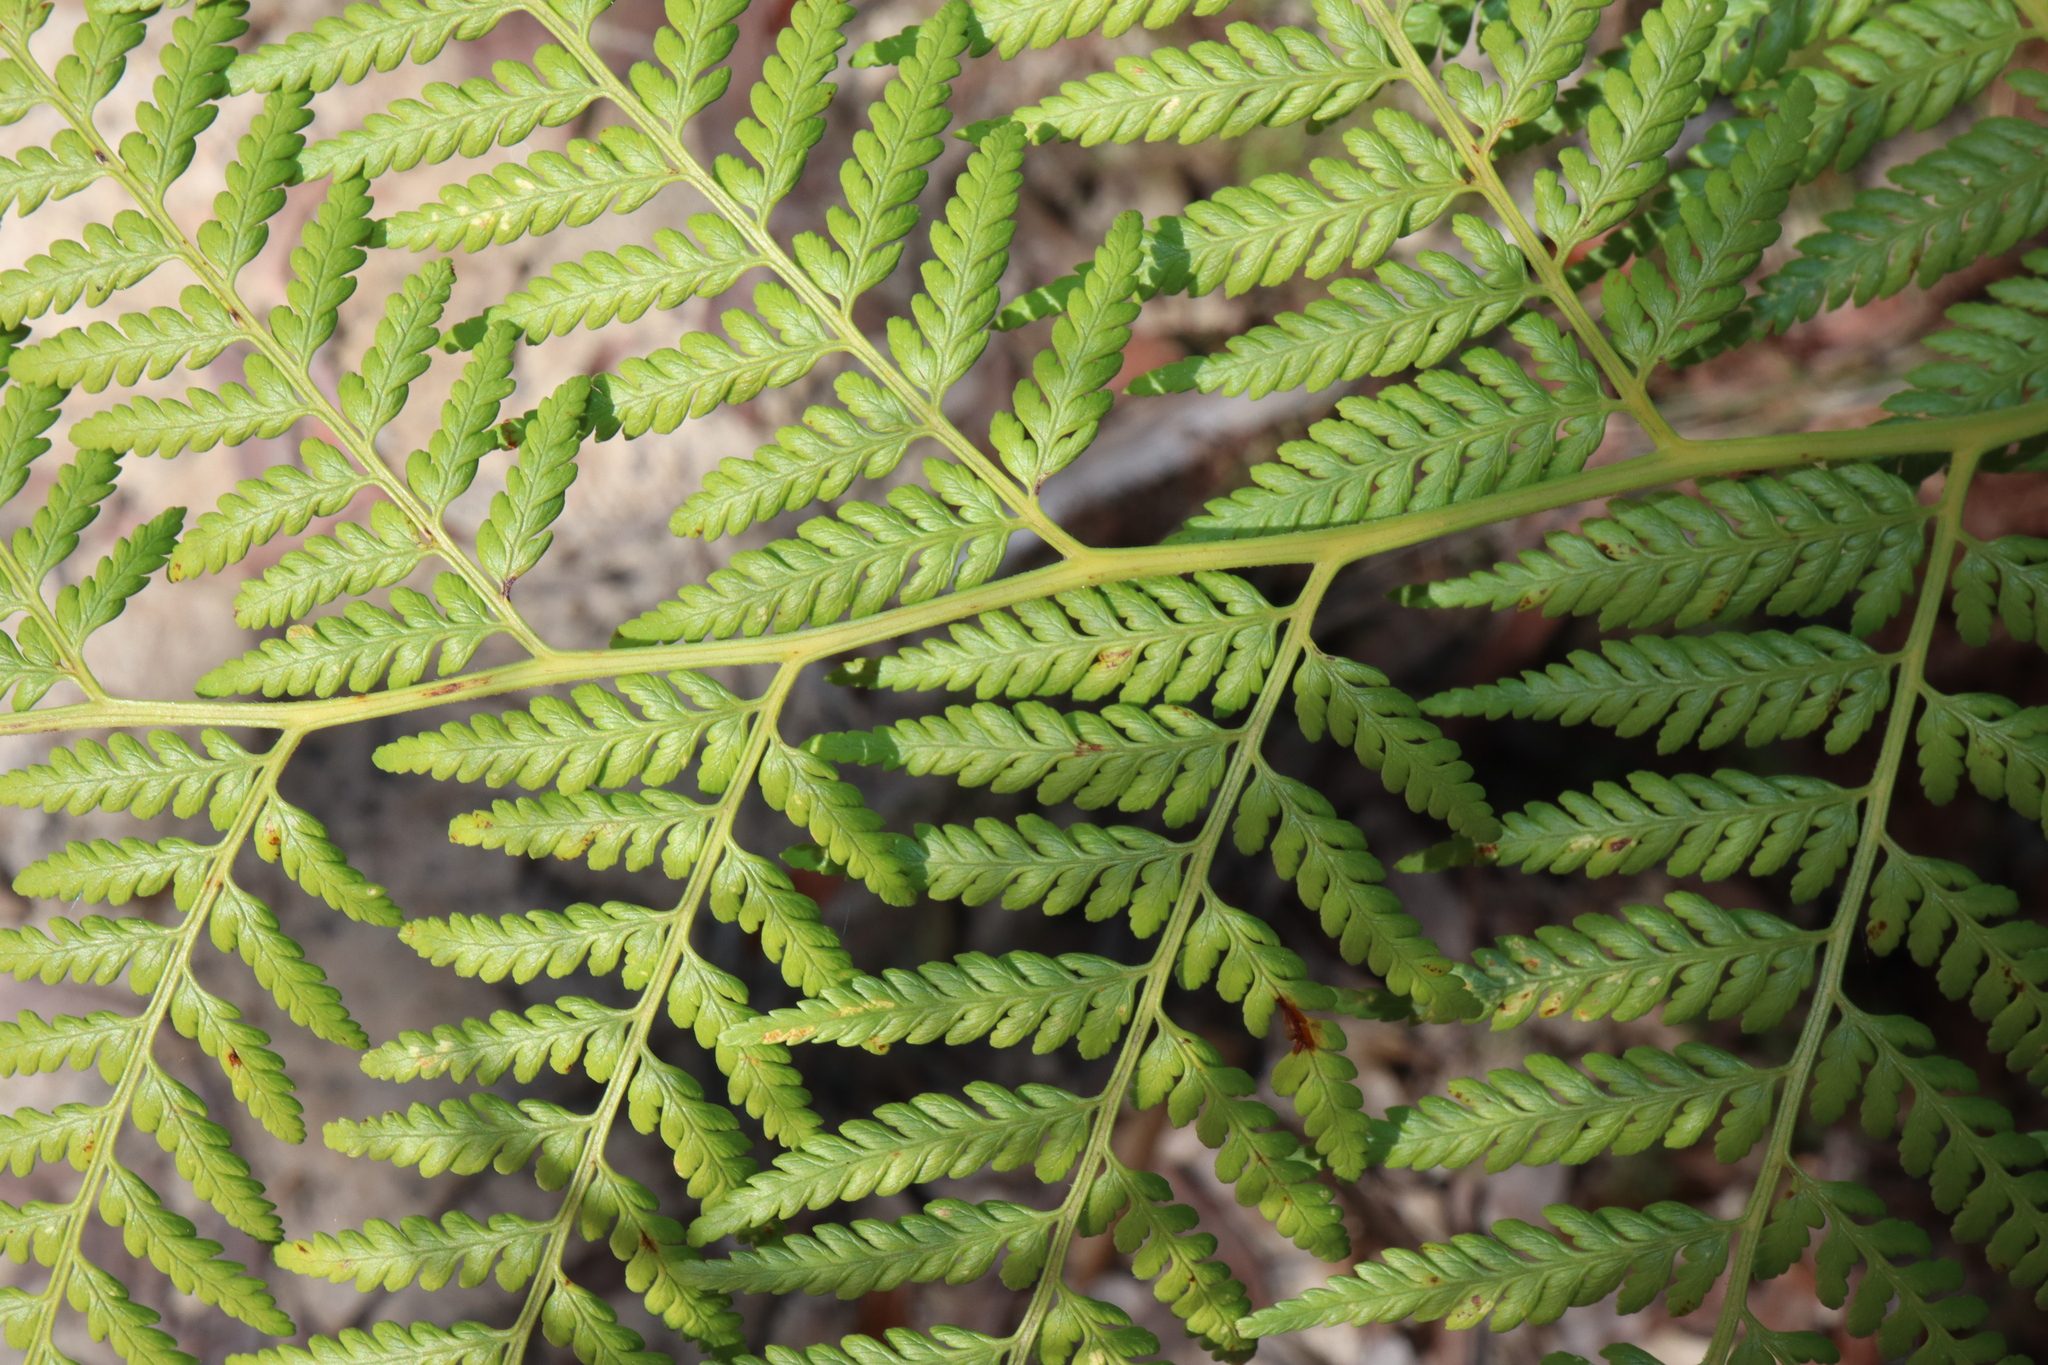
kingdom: Plantae
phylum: Tracheophyta
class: Polypodiopsida
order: Cyatheales
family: Dicksoniaceae
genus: Calochlaena
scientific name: Calochlaena dubia
